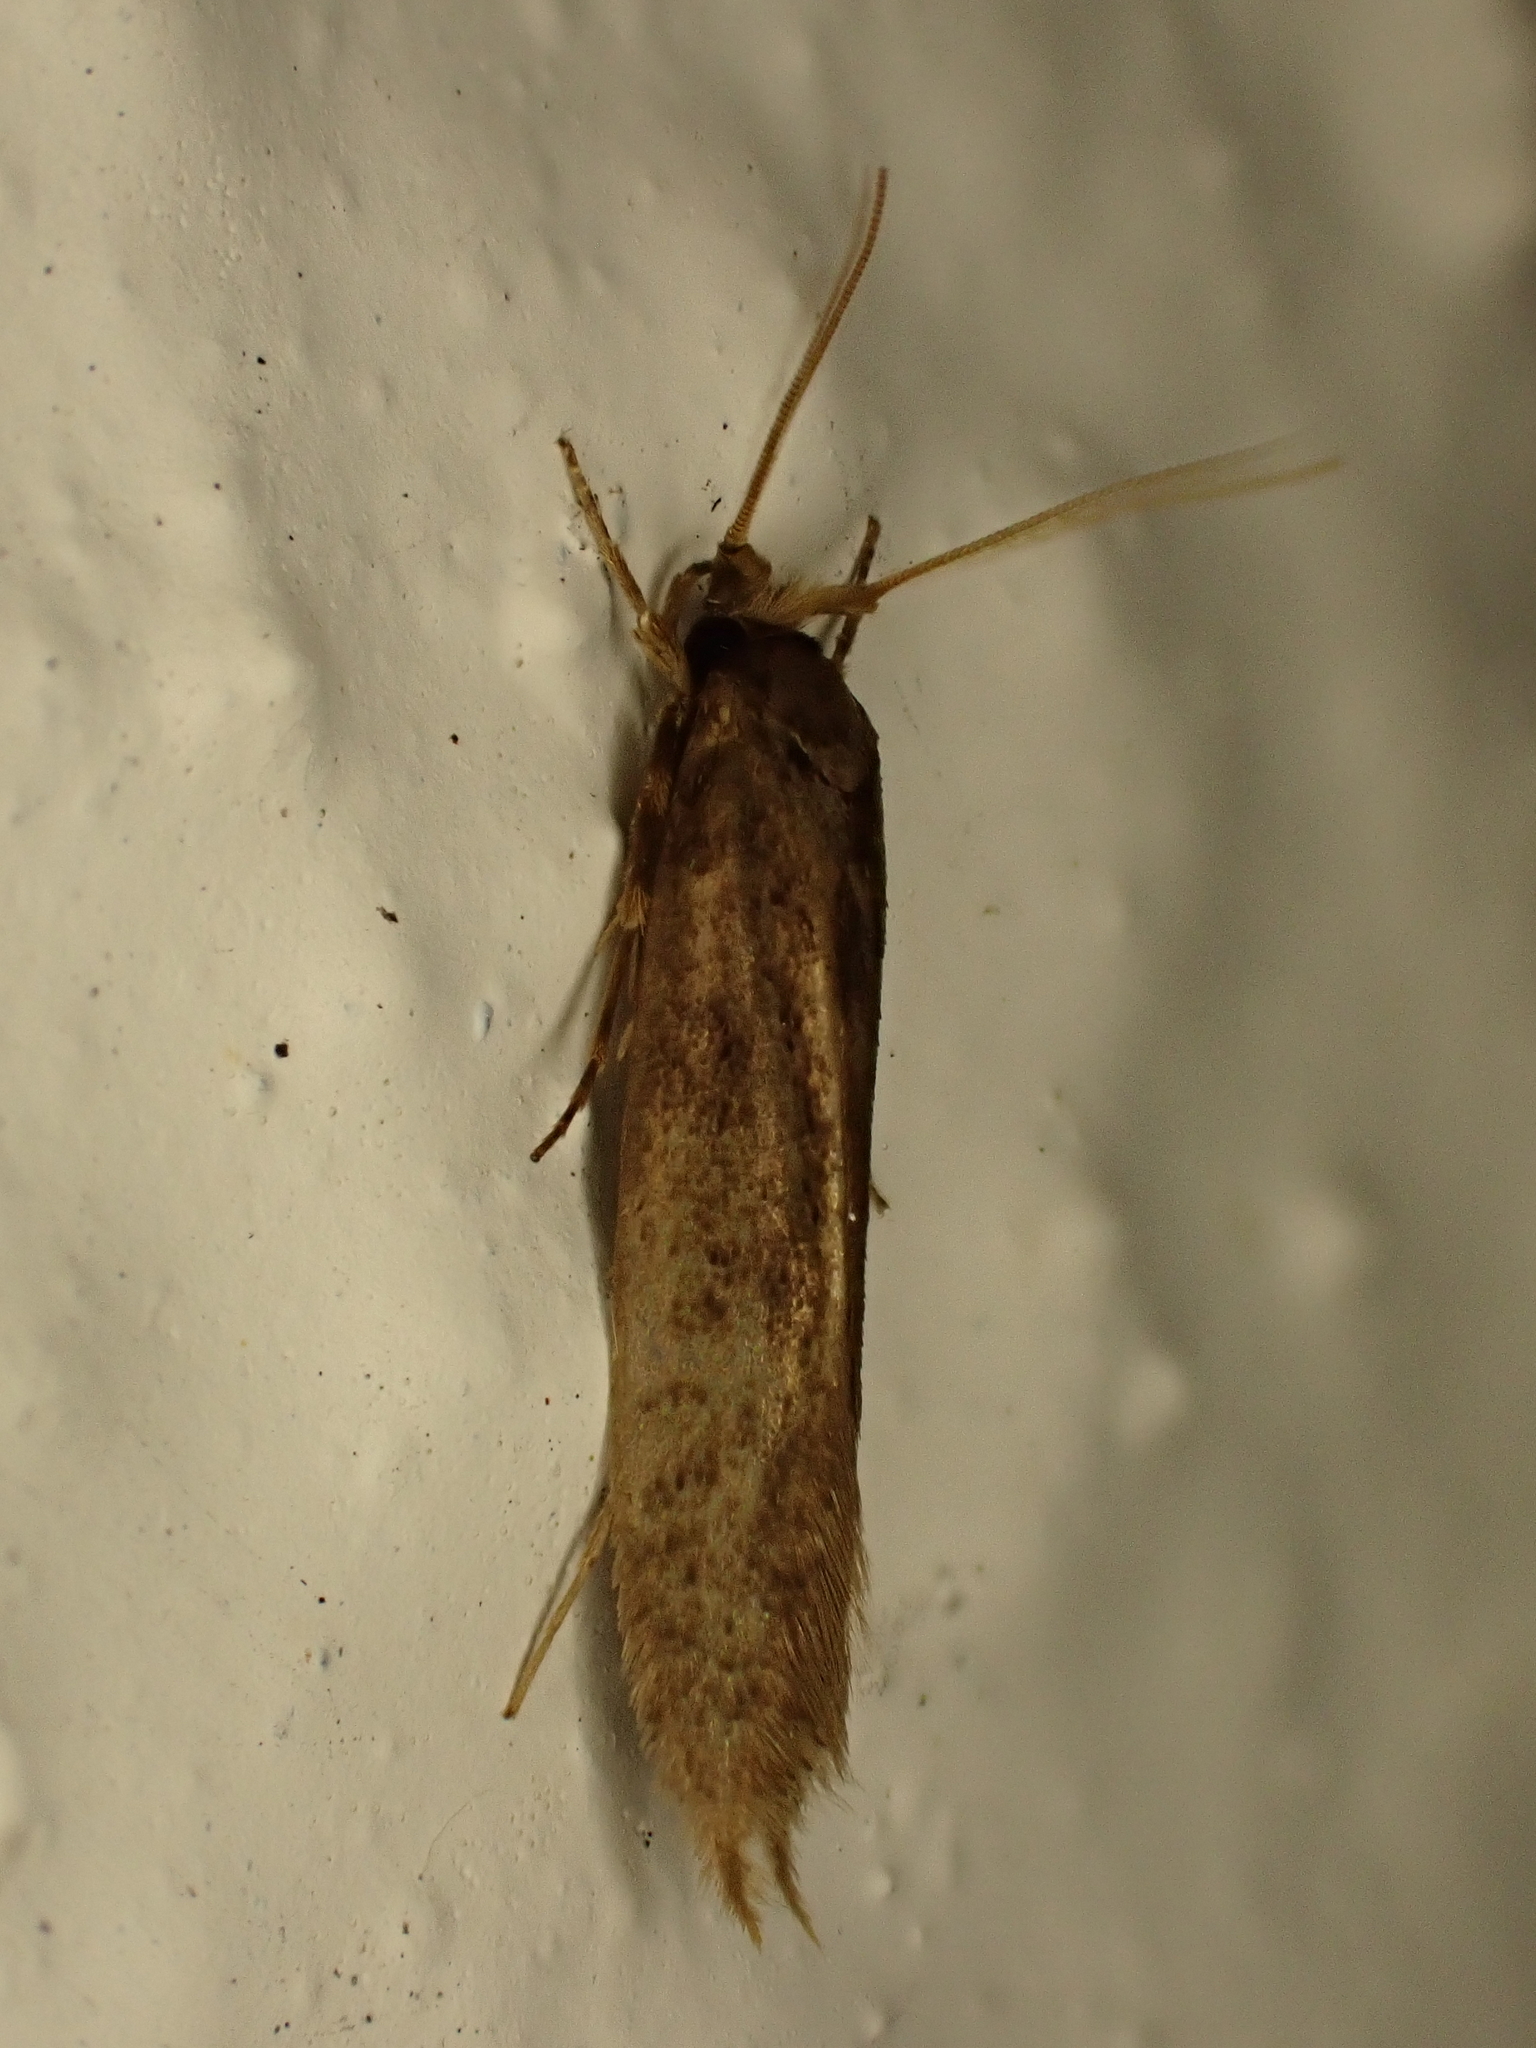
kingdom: Animalia
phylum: Arthropoda
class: Insecta
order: Lepidoptera
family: Tineidae
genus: Opogona
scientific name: Opogona omoscopa
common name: Moth
